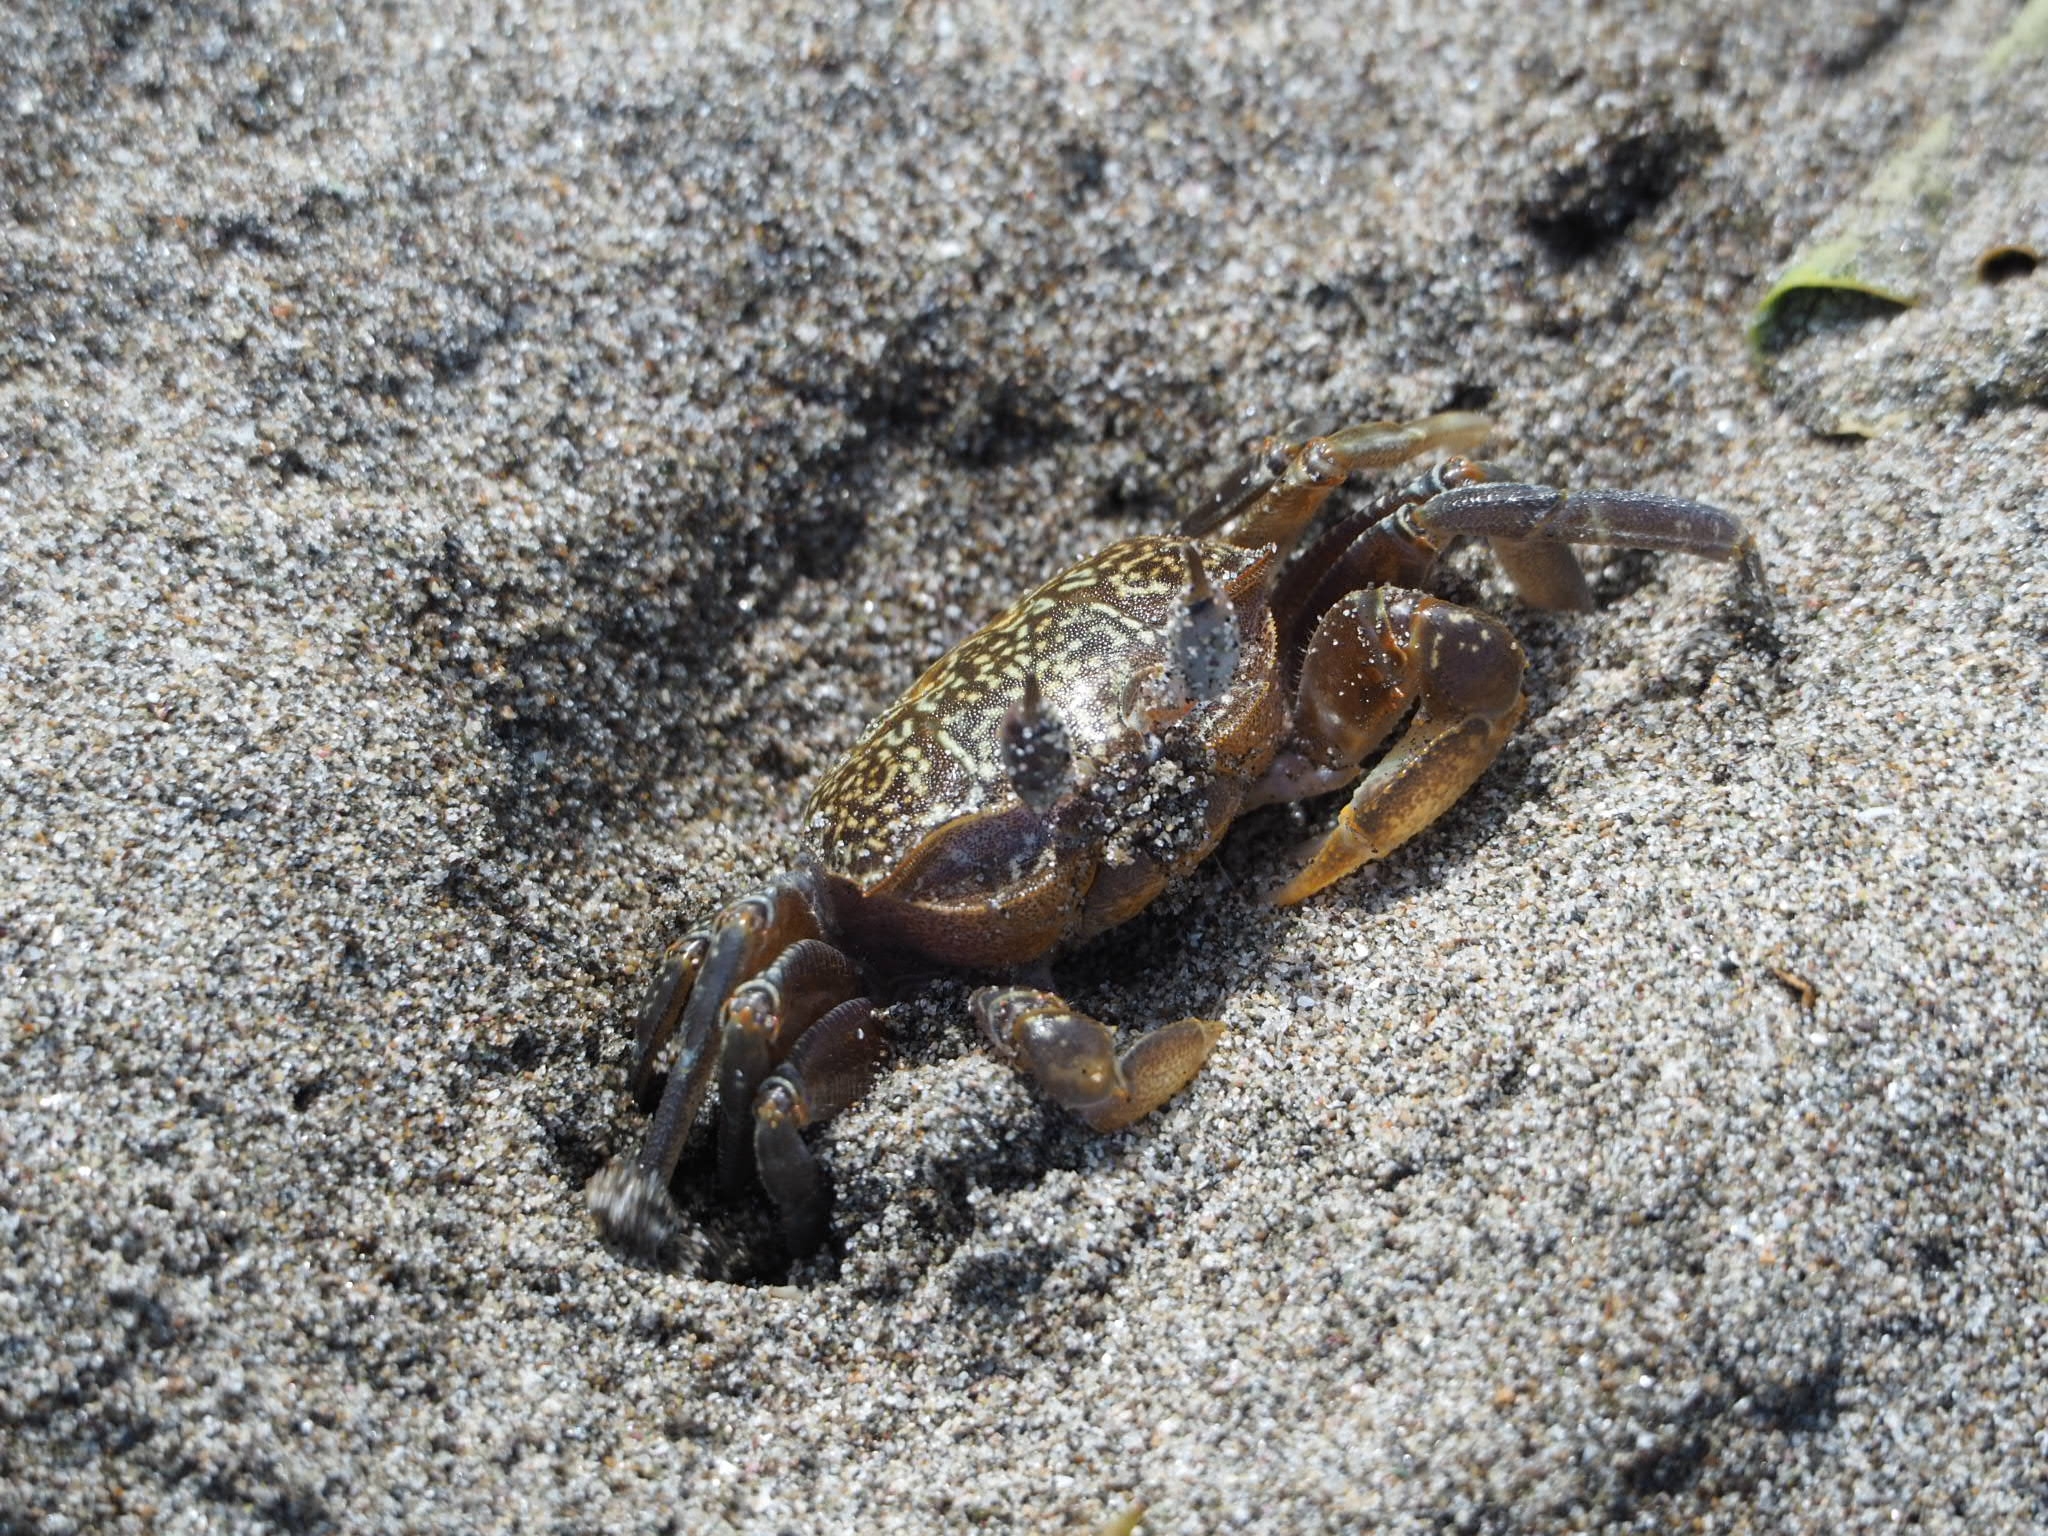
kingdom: Animalia
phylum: Arthropoda
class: Malacostraca
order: Decapoda
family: Ocypodidae
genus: Ocypode
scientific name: Ocypode gaudichaudii
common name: Pacific ghost crab
